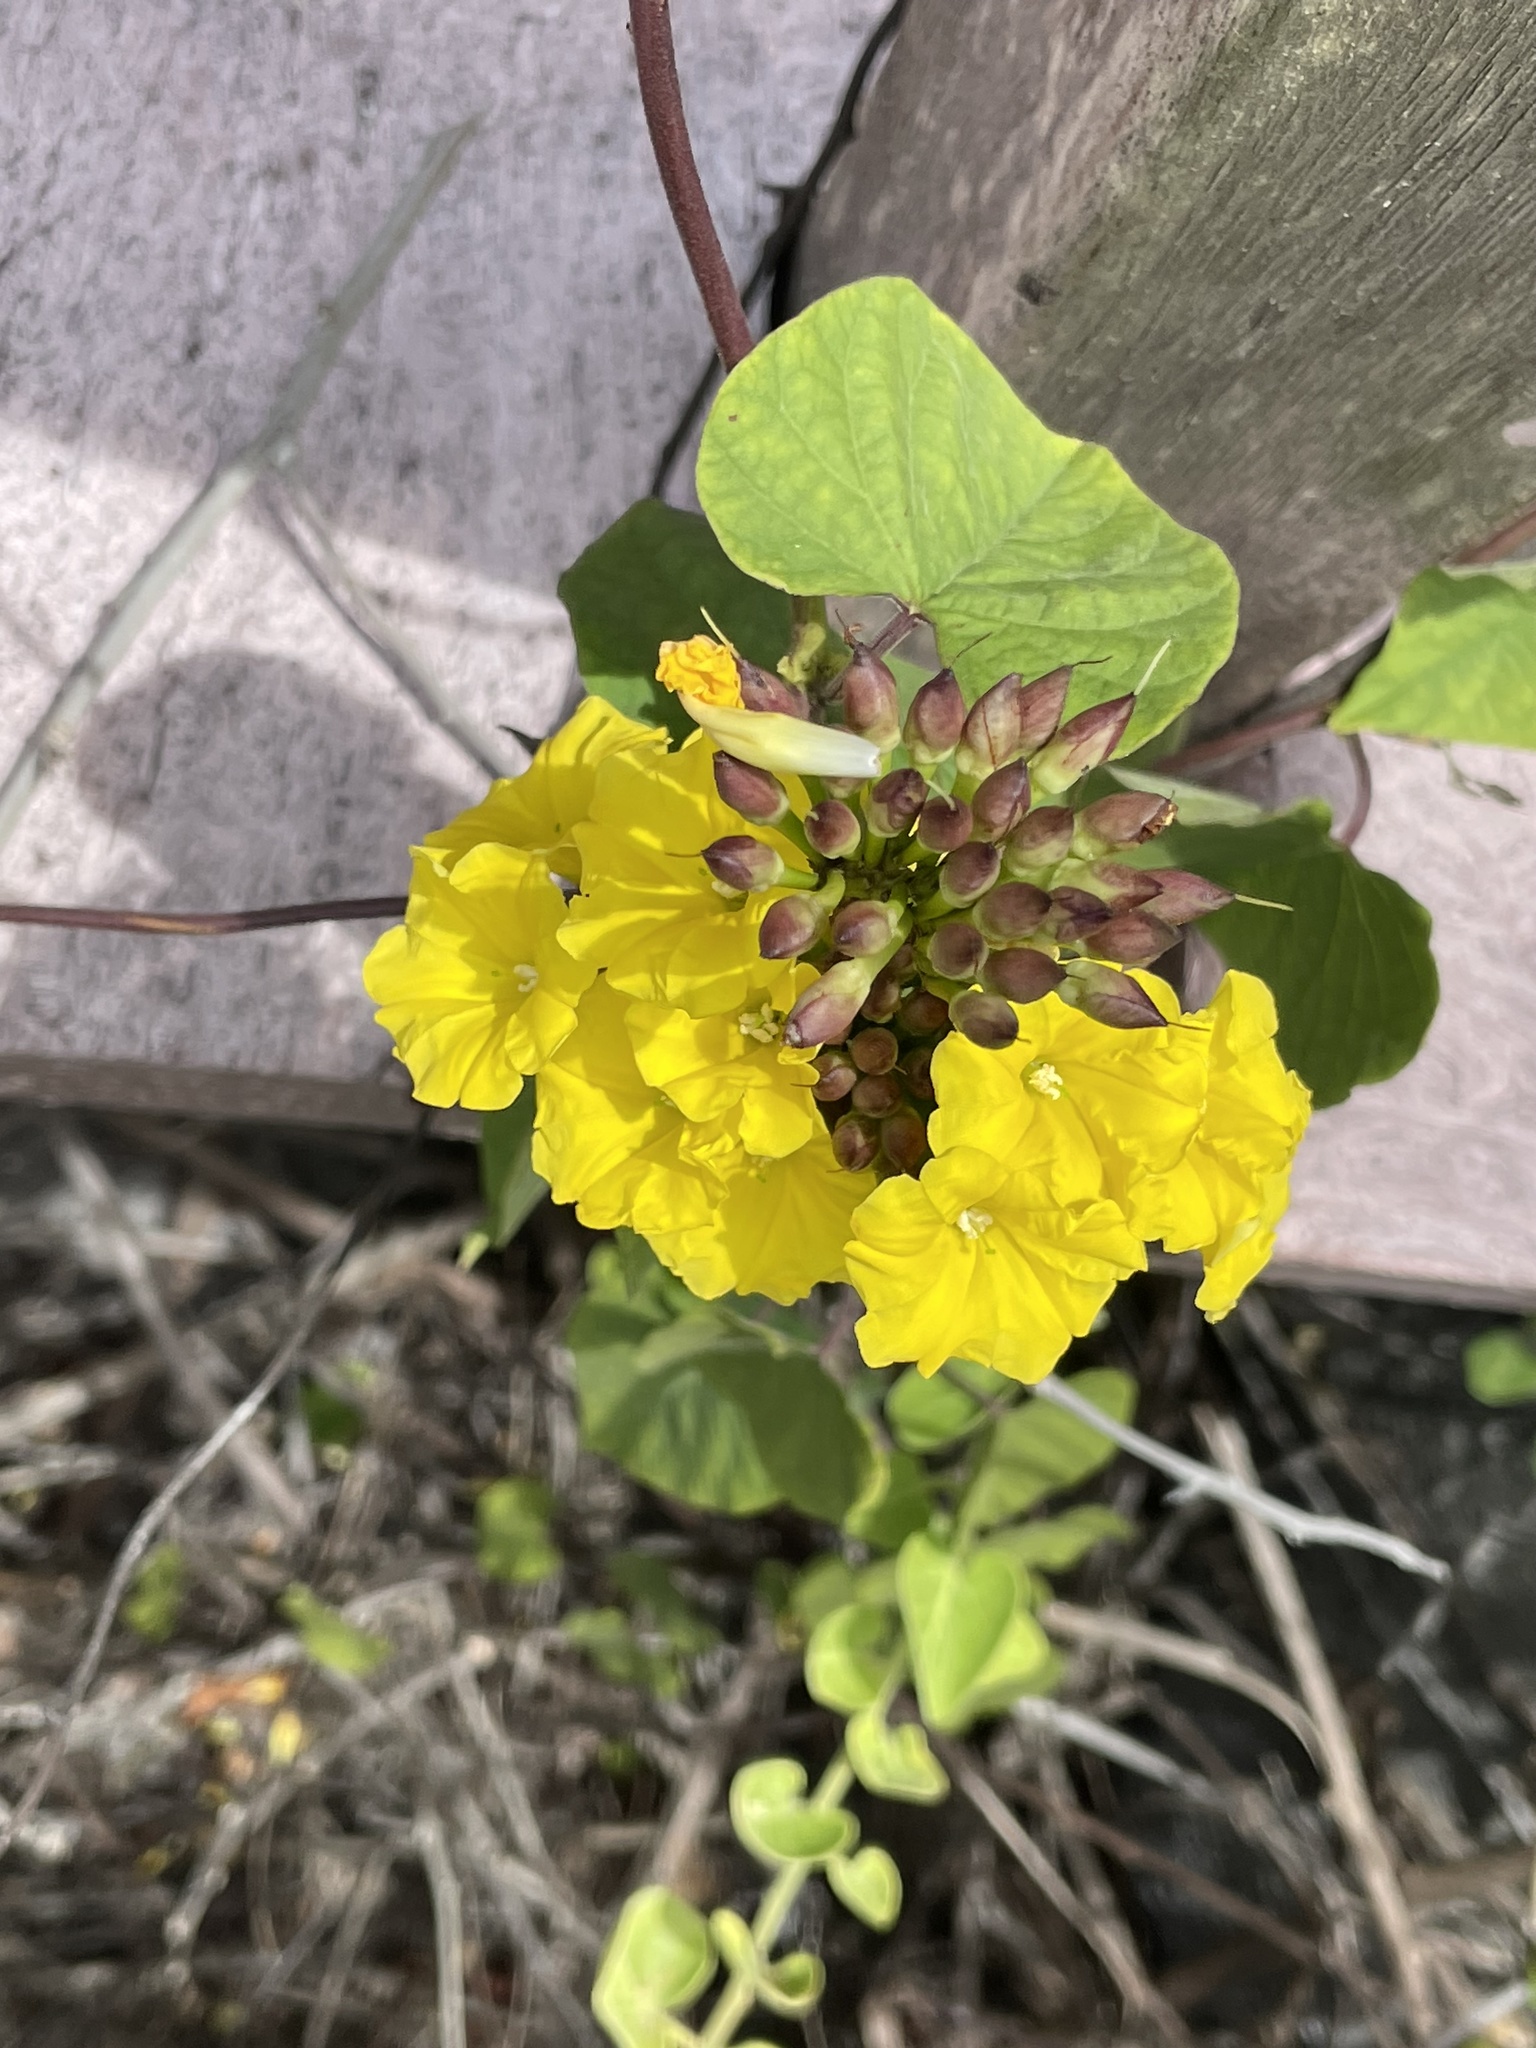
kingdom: Plantae
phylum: Tracheophyta
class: Magnoliopsida
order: Solanales
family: Convolvulaceae
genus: Camonea
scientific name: Camonea umbellata
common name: Hogvine
